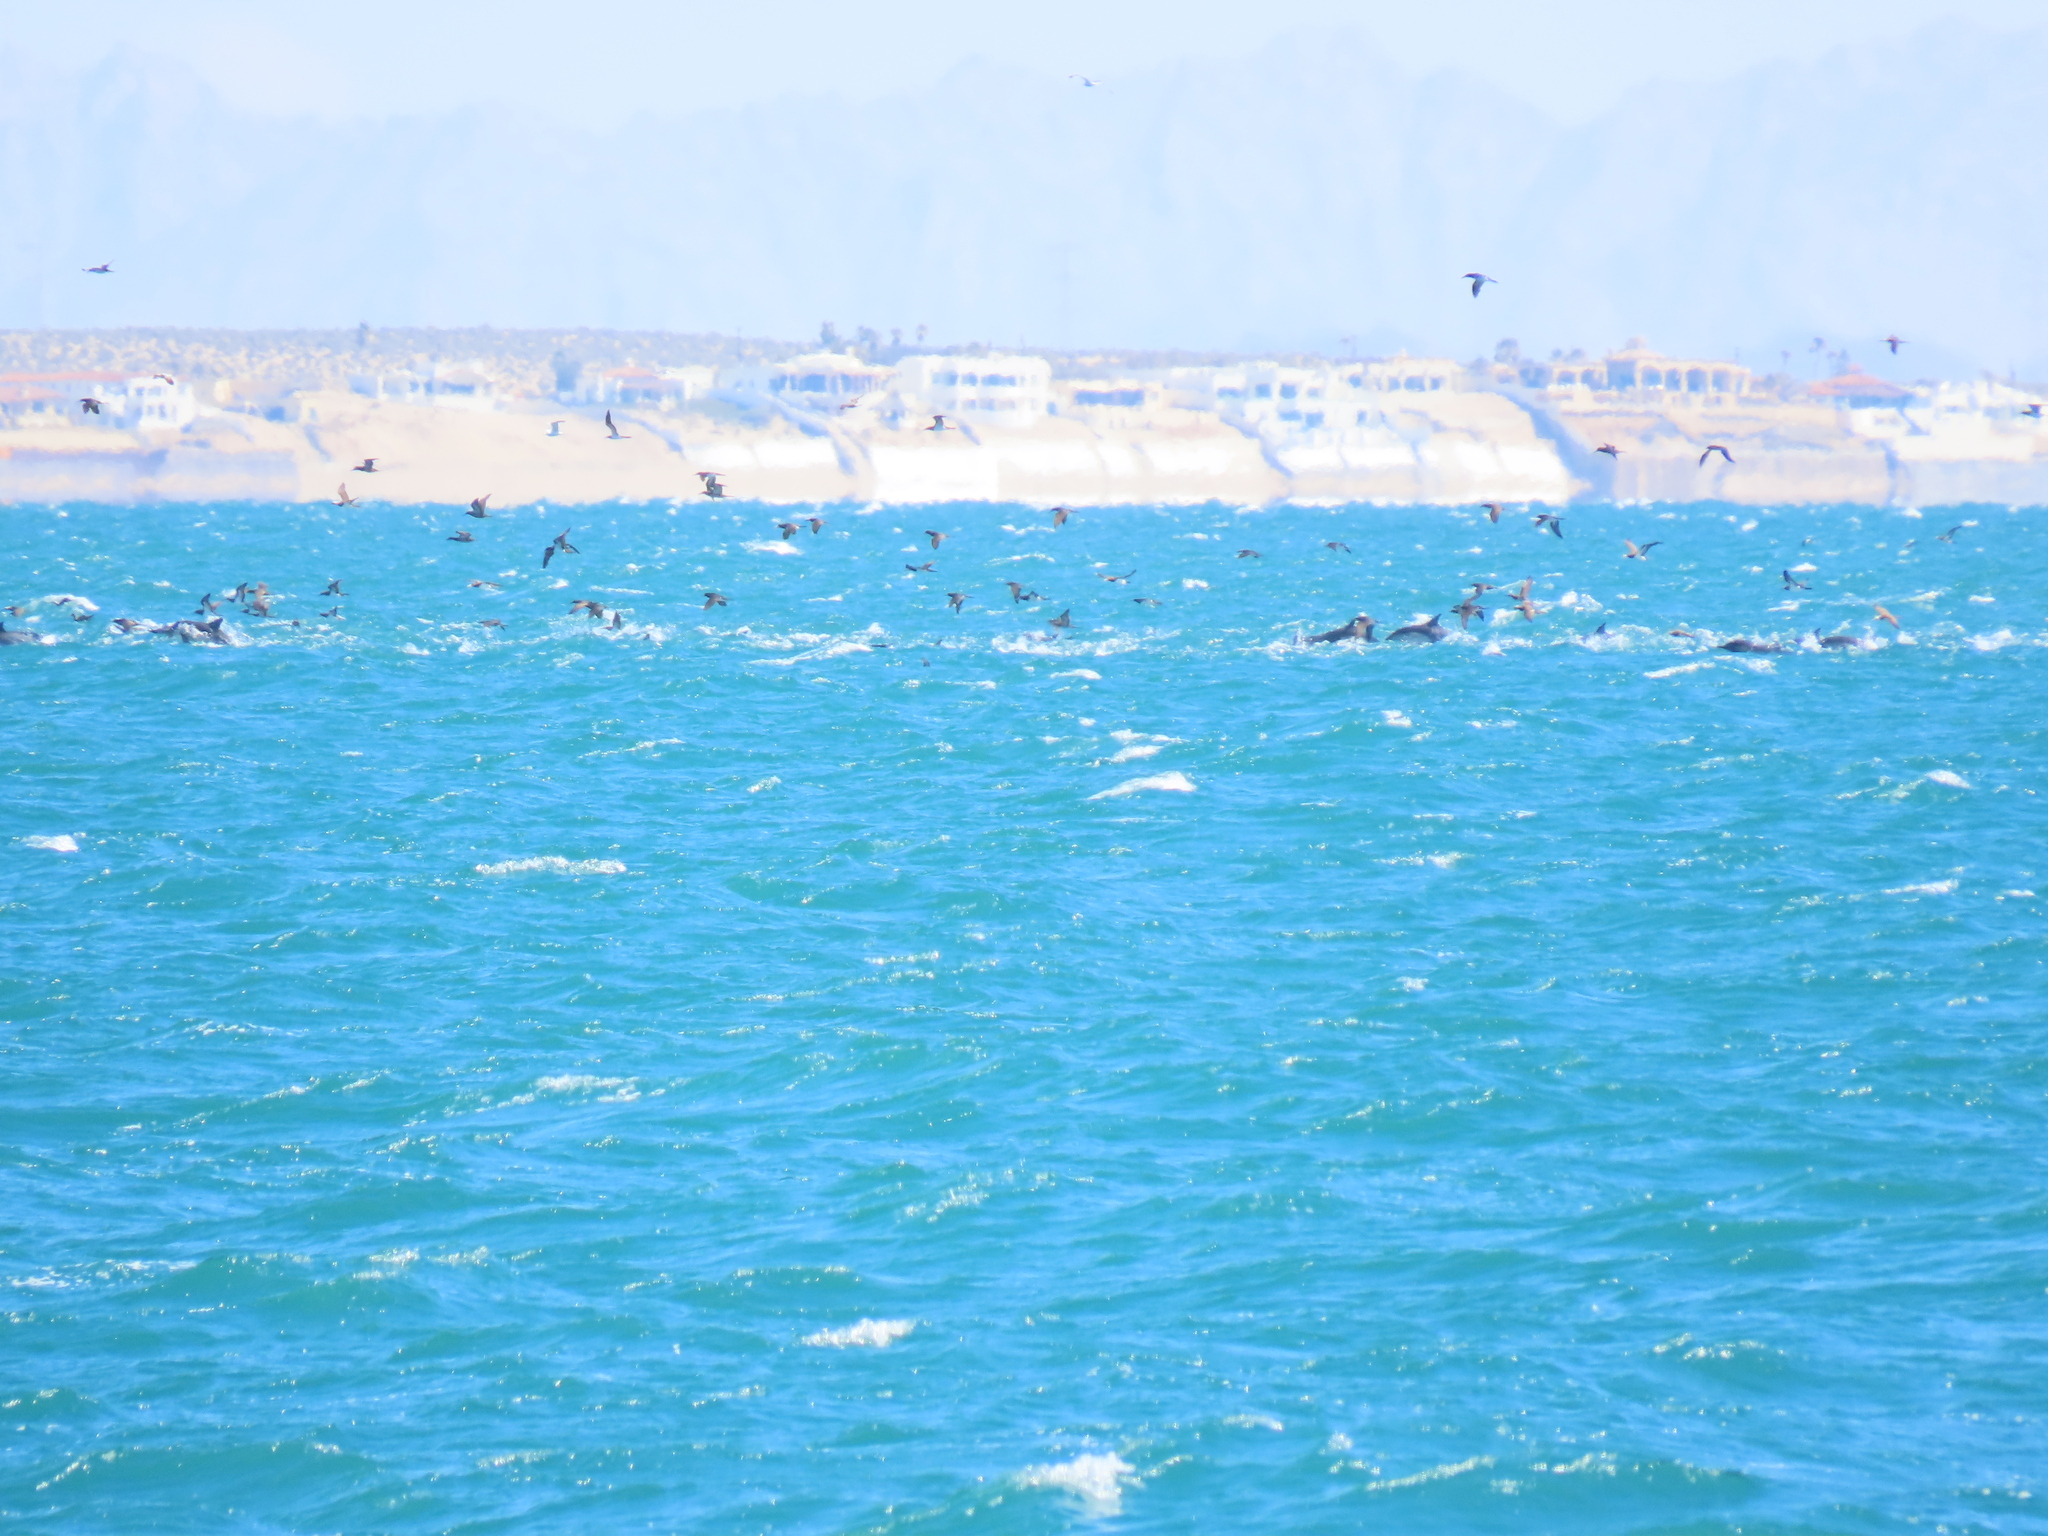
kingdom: Animalia
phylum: Chordata
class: Mammalia
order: Cetacea
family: Delphinidae
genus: Delphinus
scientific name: Delphinus delphis
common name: Common dolphin
